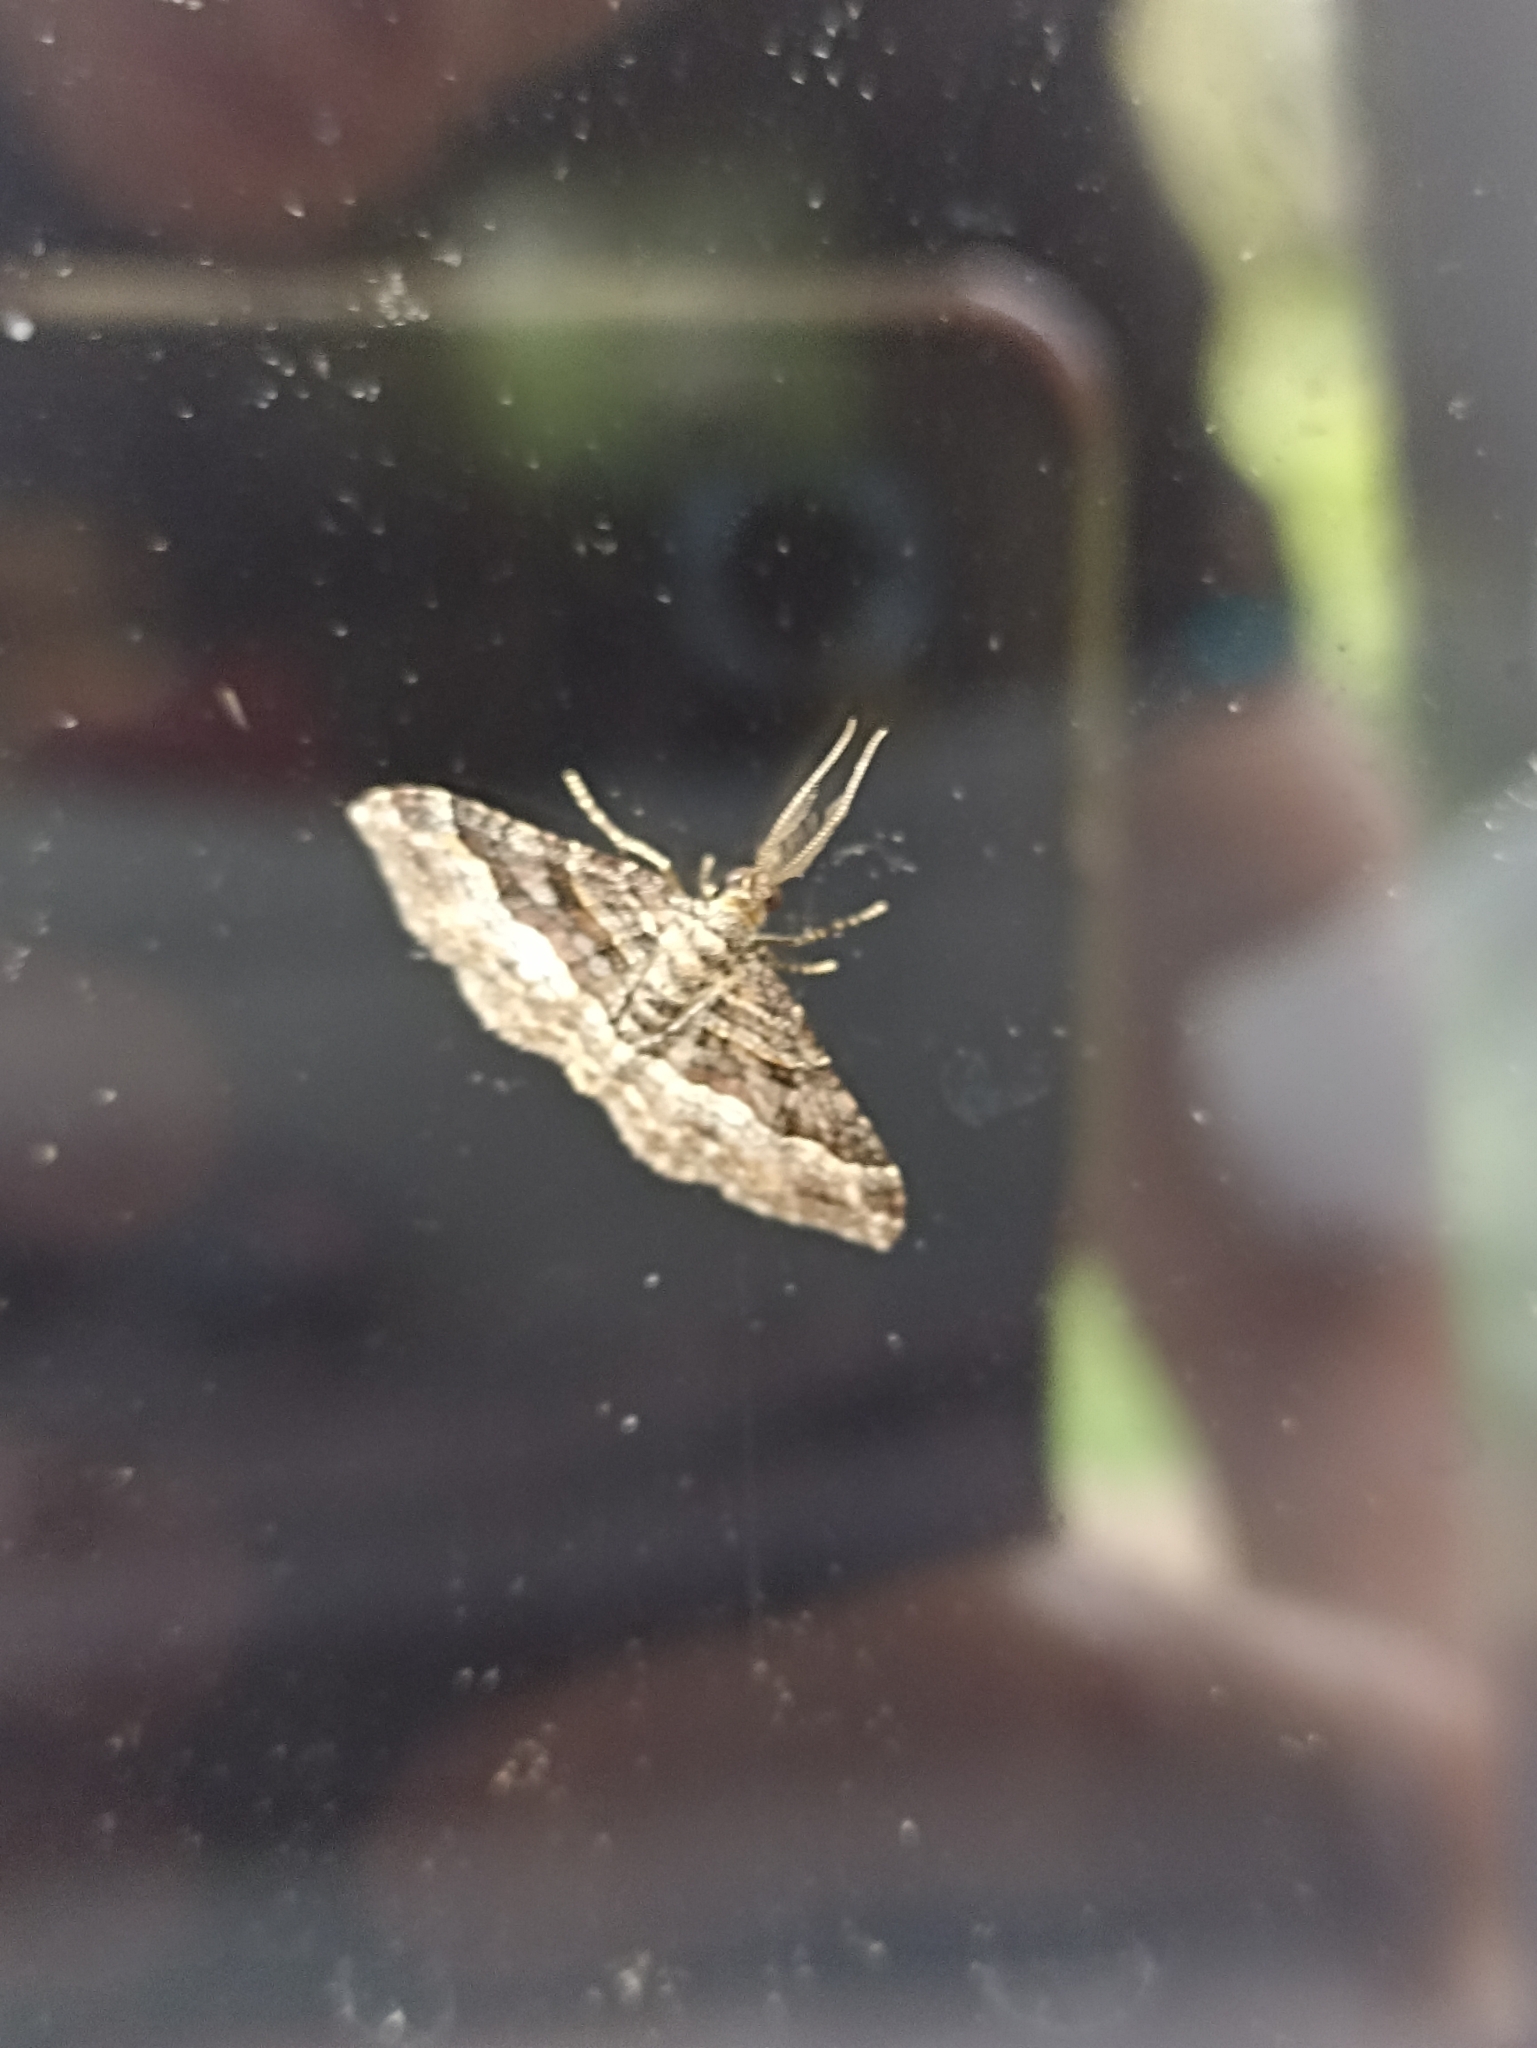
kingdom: Animalia
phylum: Arthropoda
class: Insecta
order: Lepidoptera
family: Geometridae
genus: Epyaxa
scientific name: Epyaxa lucidata
